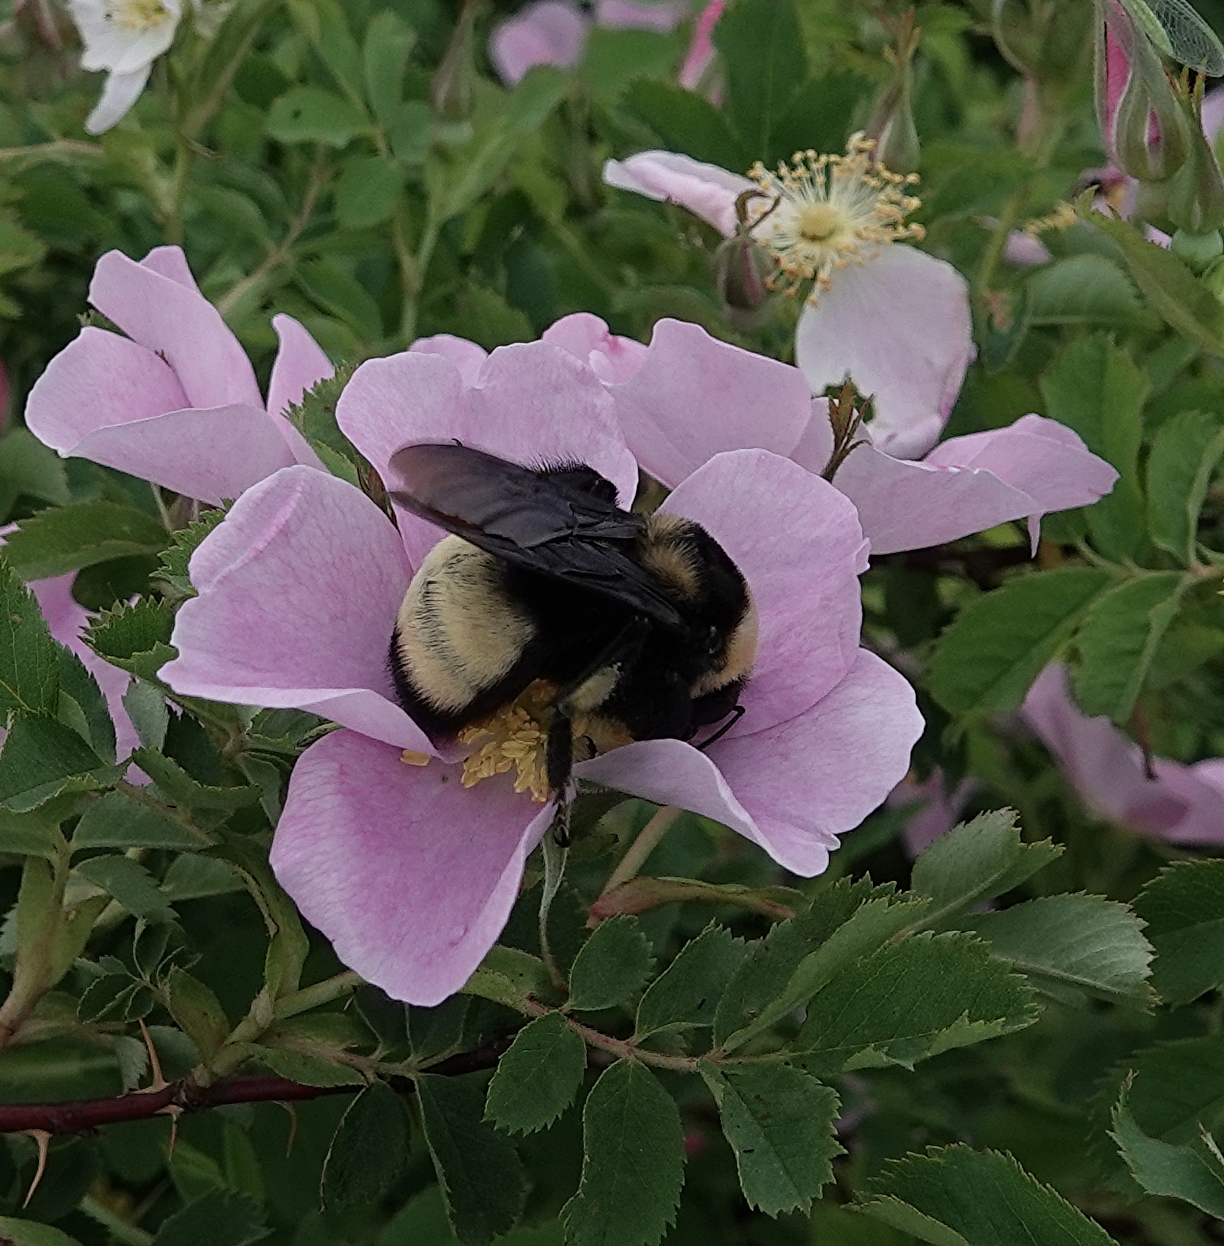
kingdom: Animalia
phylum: Arthropoda
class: Insecta
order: Hymenoptera
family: Apidae
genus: Bombus
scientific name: Bombus auricomus
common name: Black and gold bumble bee
